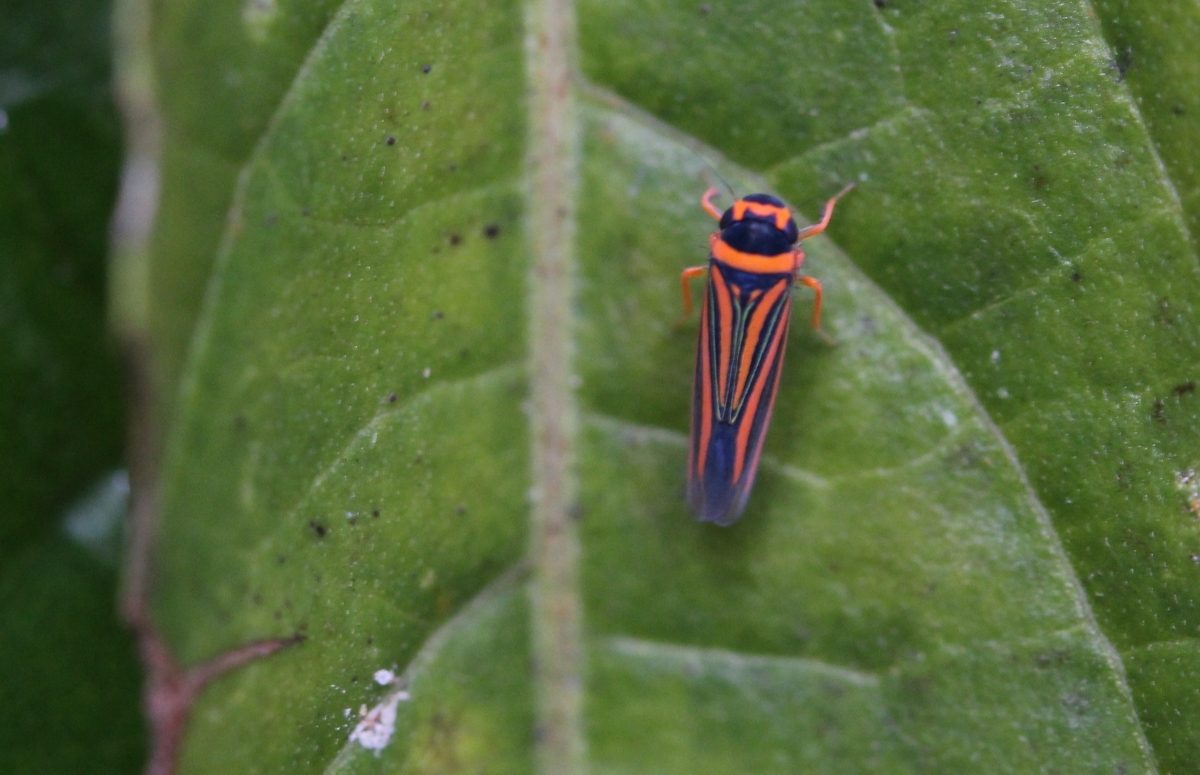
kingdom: Animalia
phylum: Arthropoda
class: Insecta
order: Hemiptera
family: Cicadellidae
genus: Ramosulus
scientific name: Ramosulus corrugipennis
